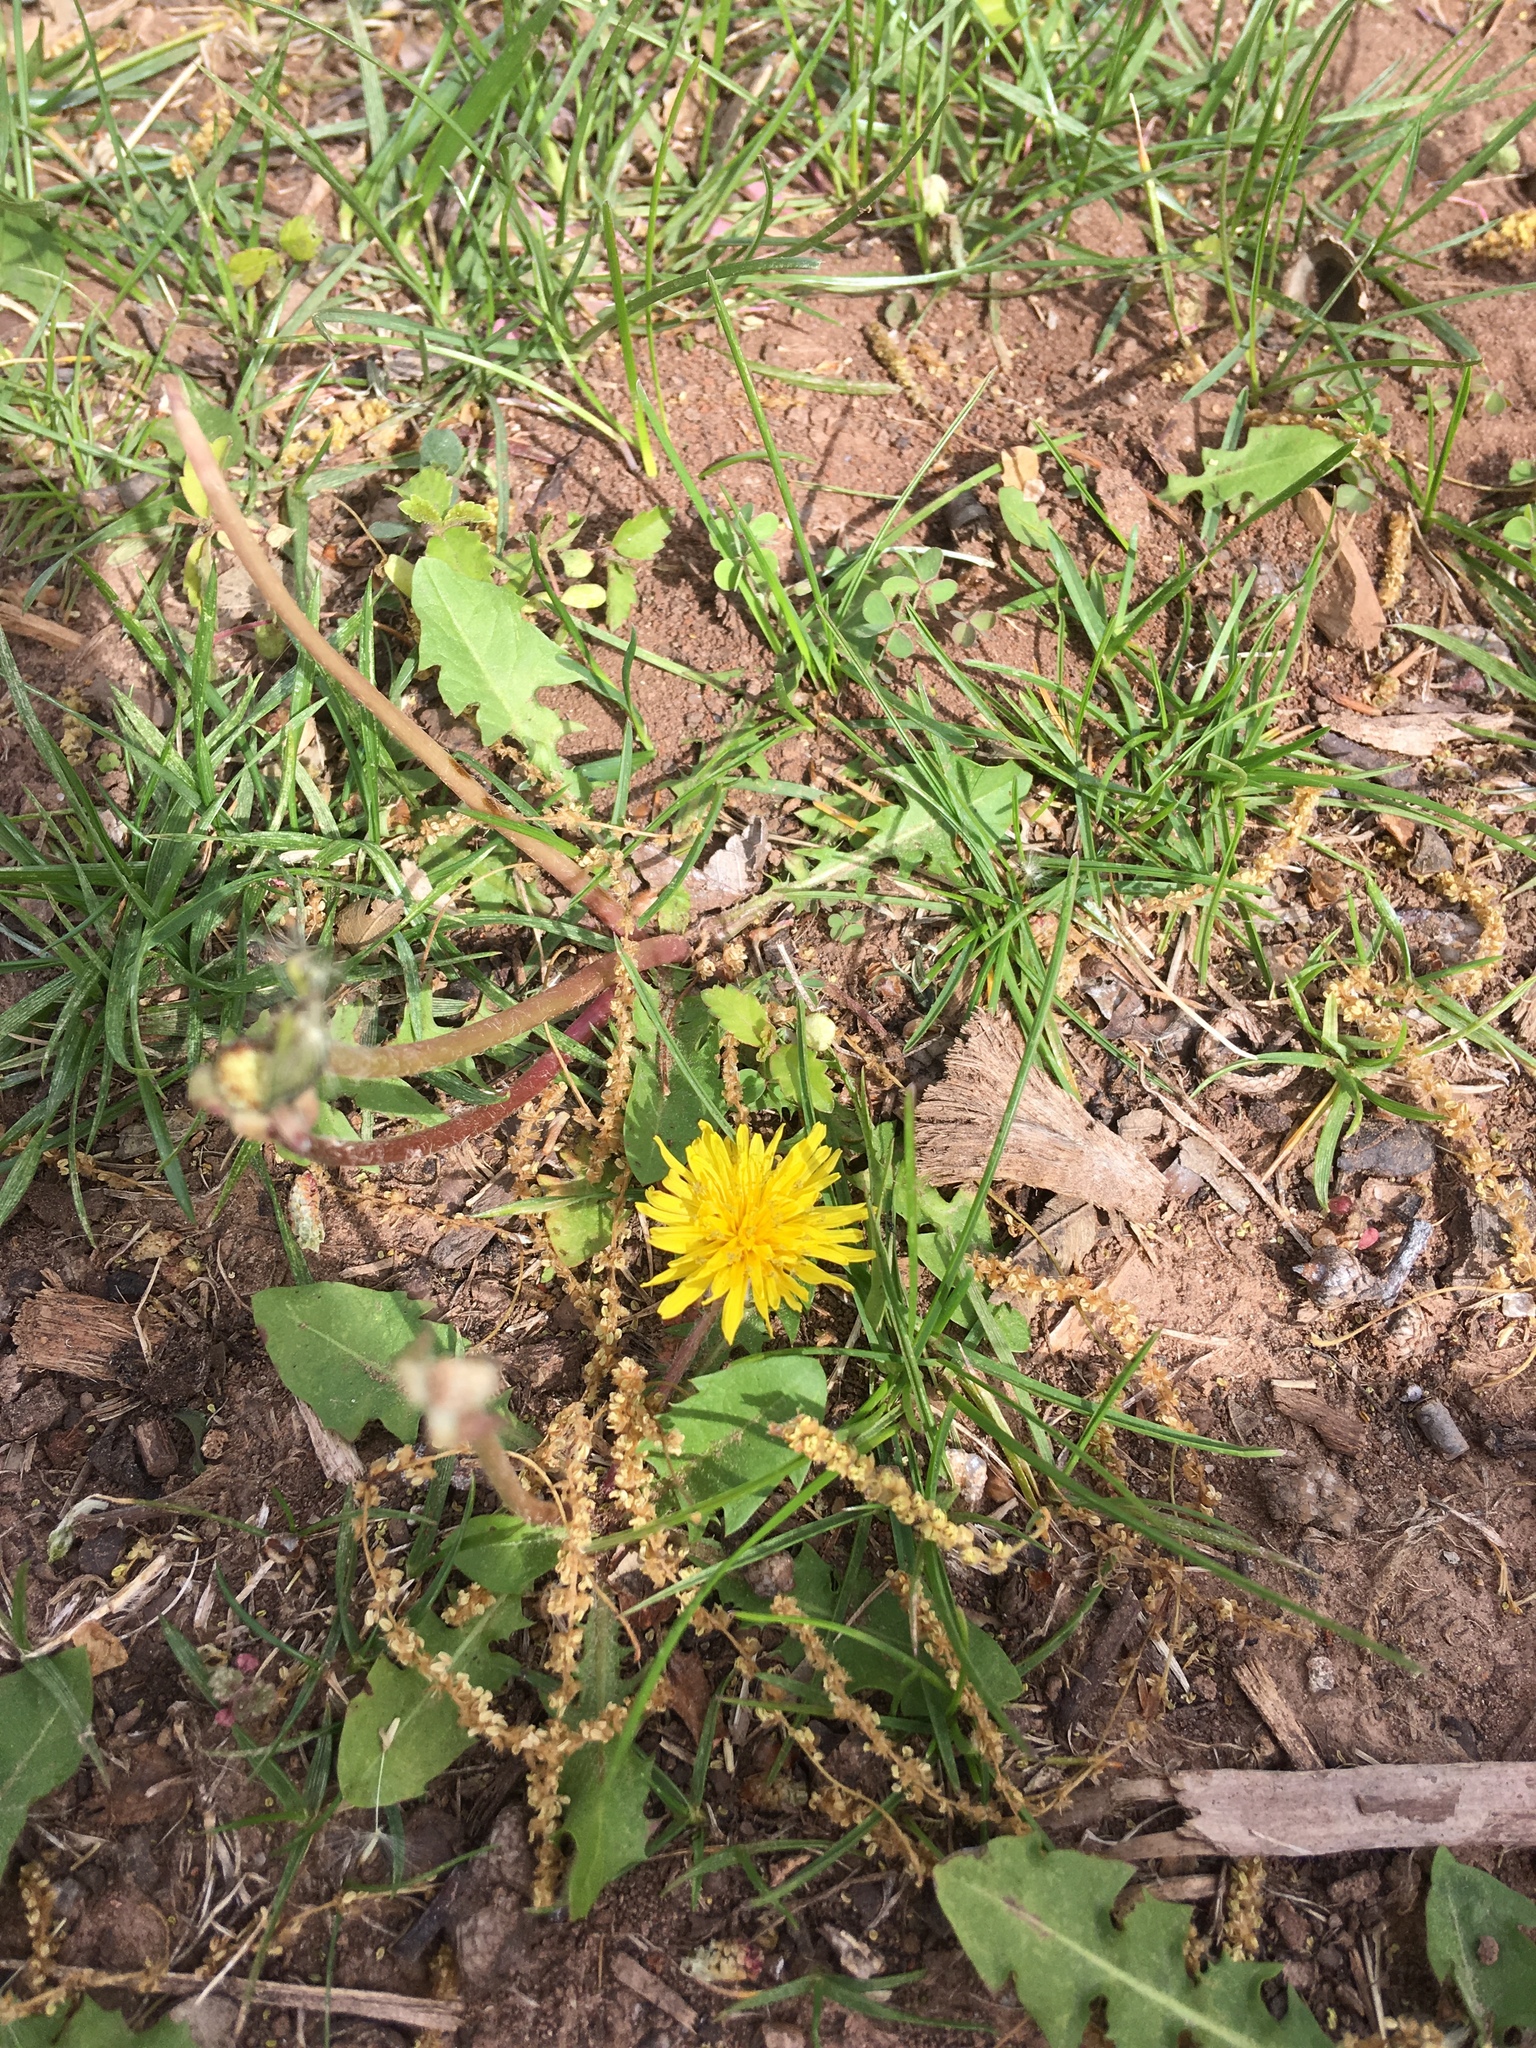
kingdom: Plantae
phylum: Tracheophyta
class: Magnoliopsida
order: Asterales
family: Asteraceae
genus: Taraxacum
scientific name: Taraxacum officinale
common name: Common dandelion
